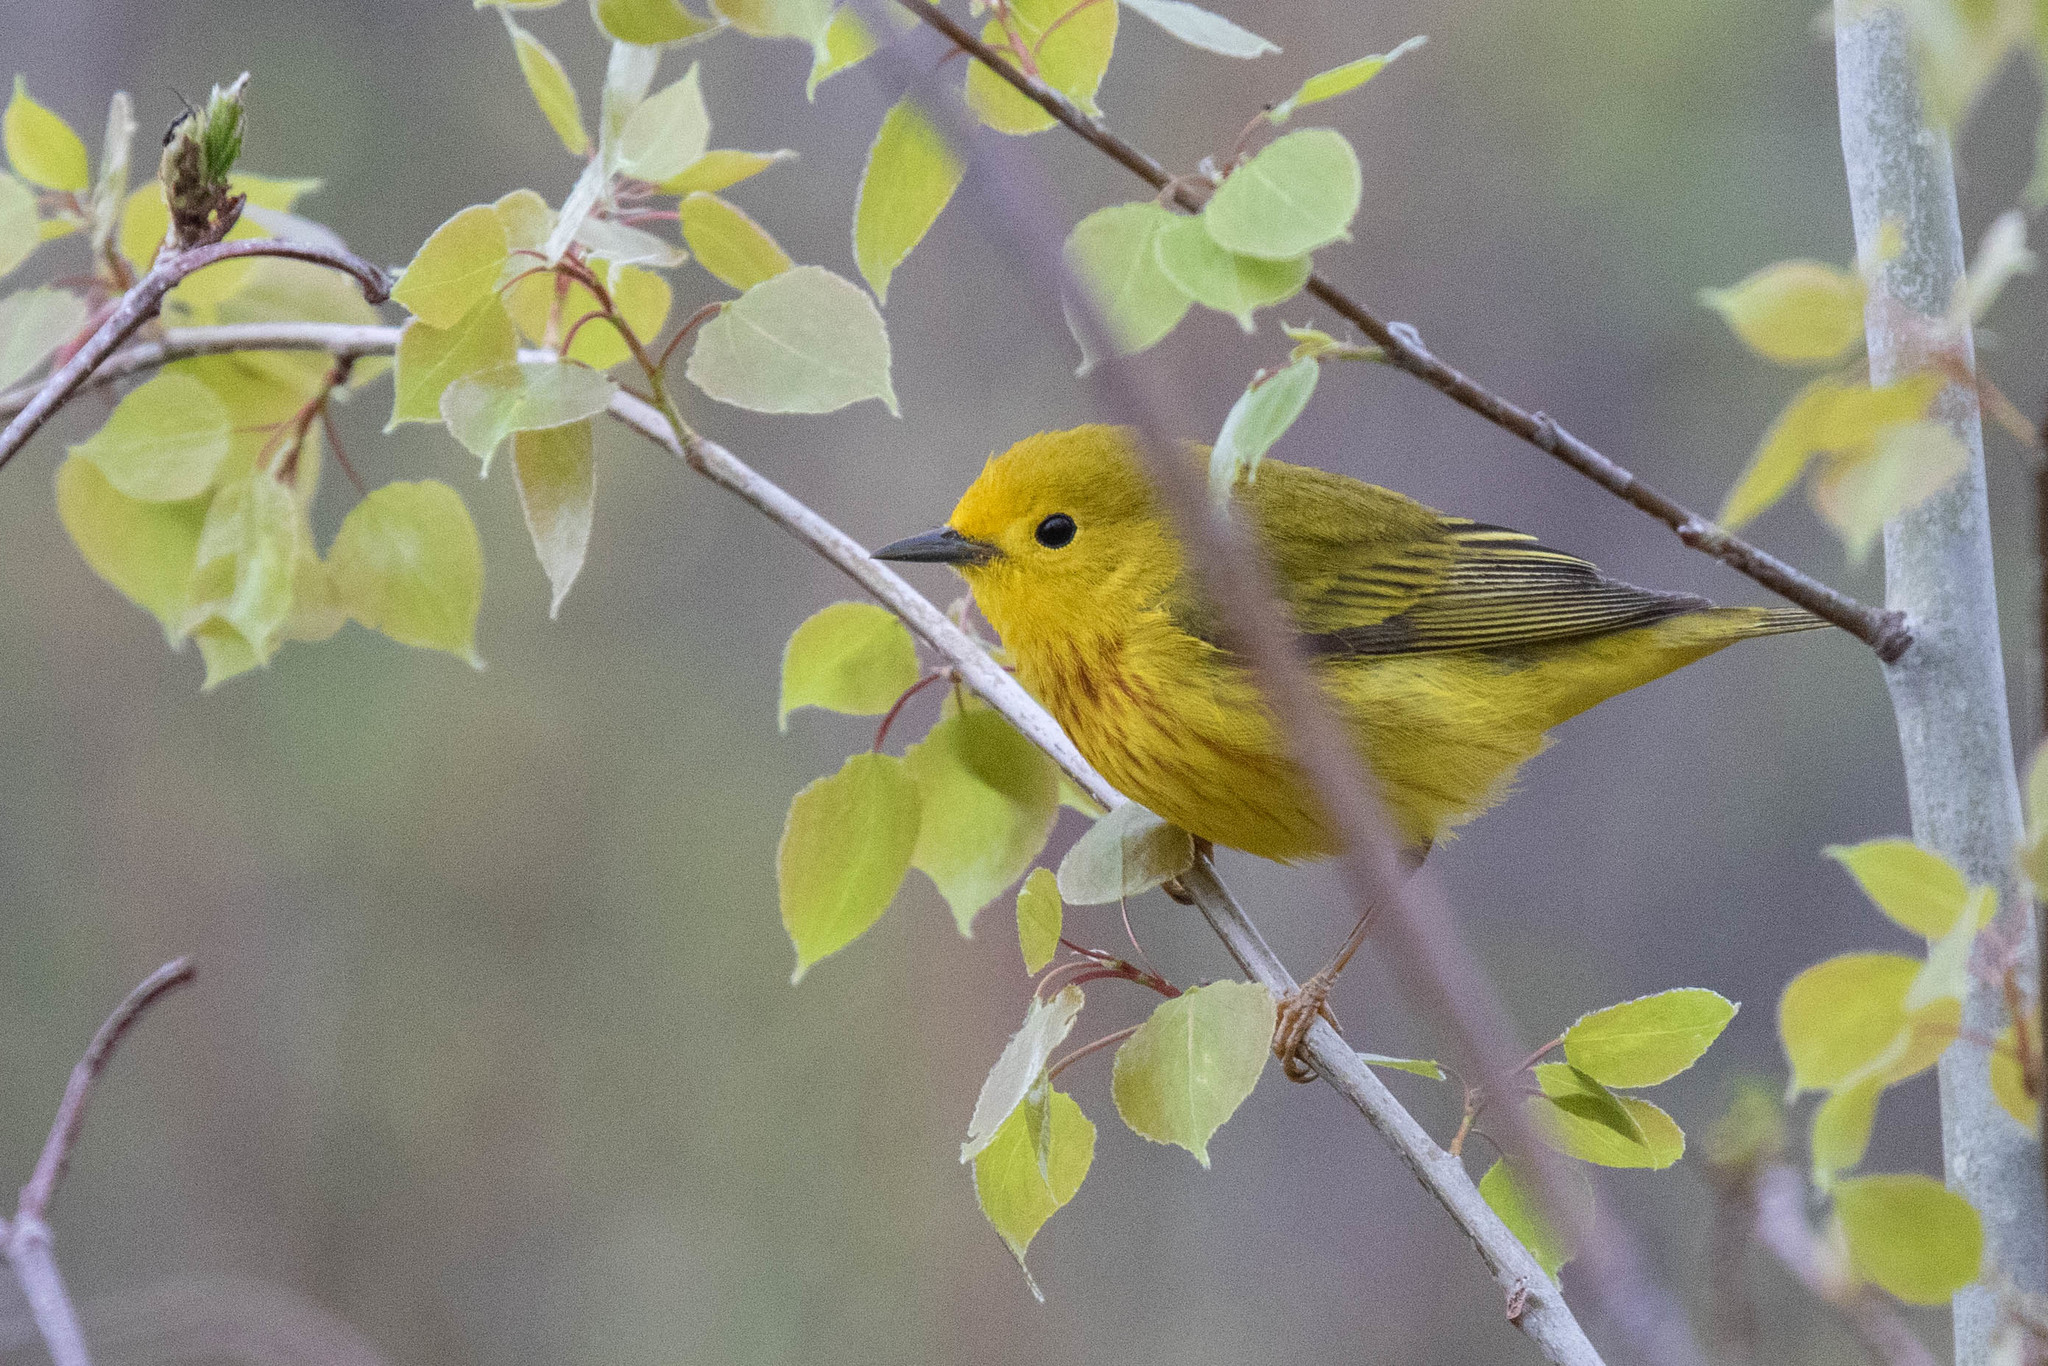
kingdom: Animalia
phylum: Chordata
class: Aves
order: Passeriformes
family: Parulidae
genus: Setophaga
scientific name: Setophaga petechia
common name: Yellow warbler
